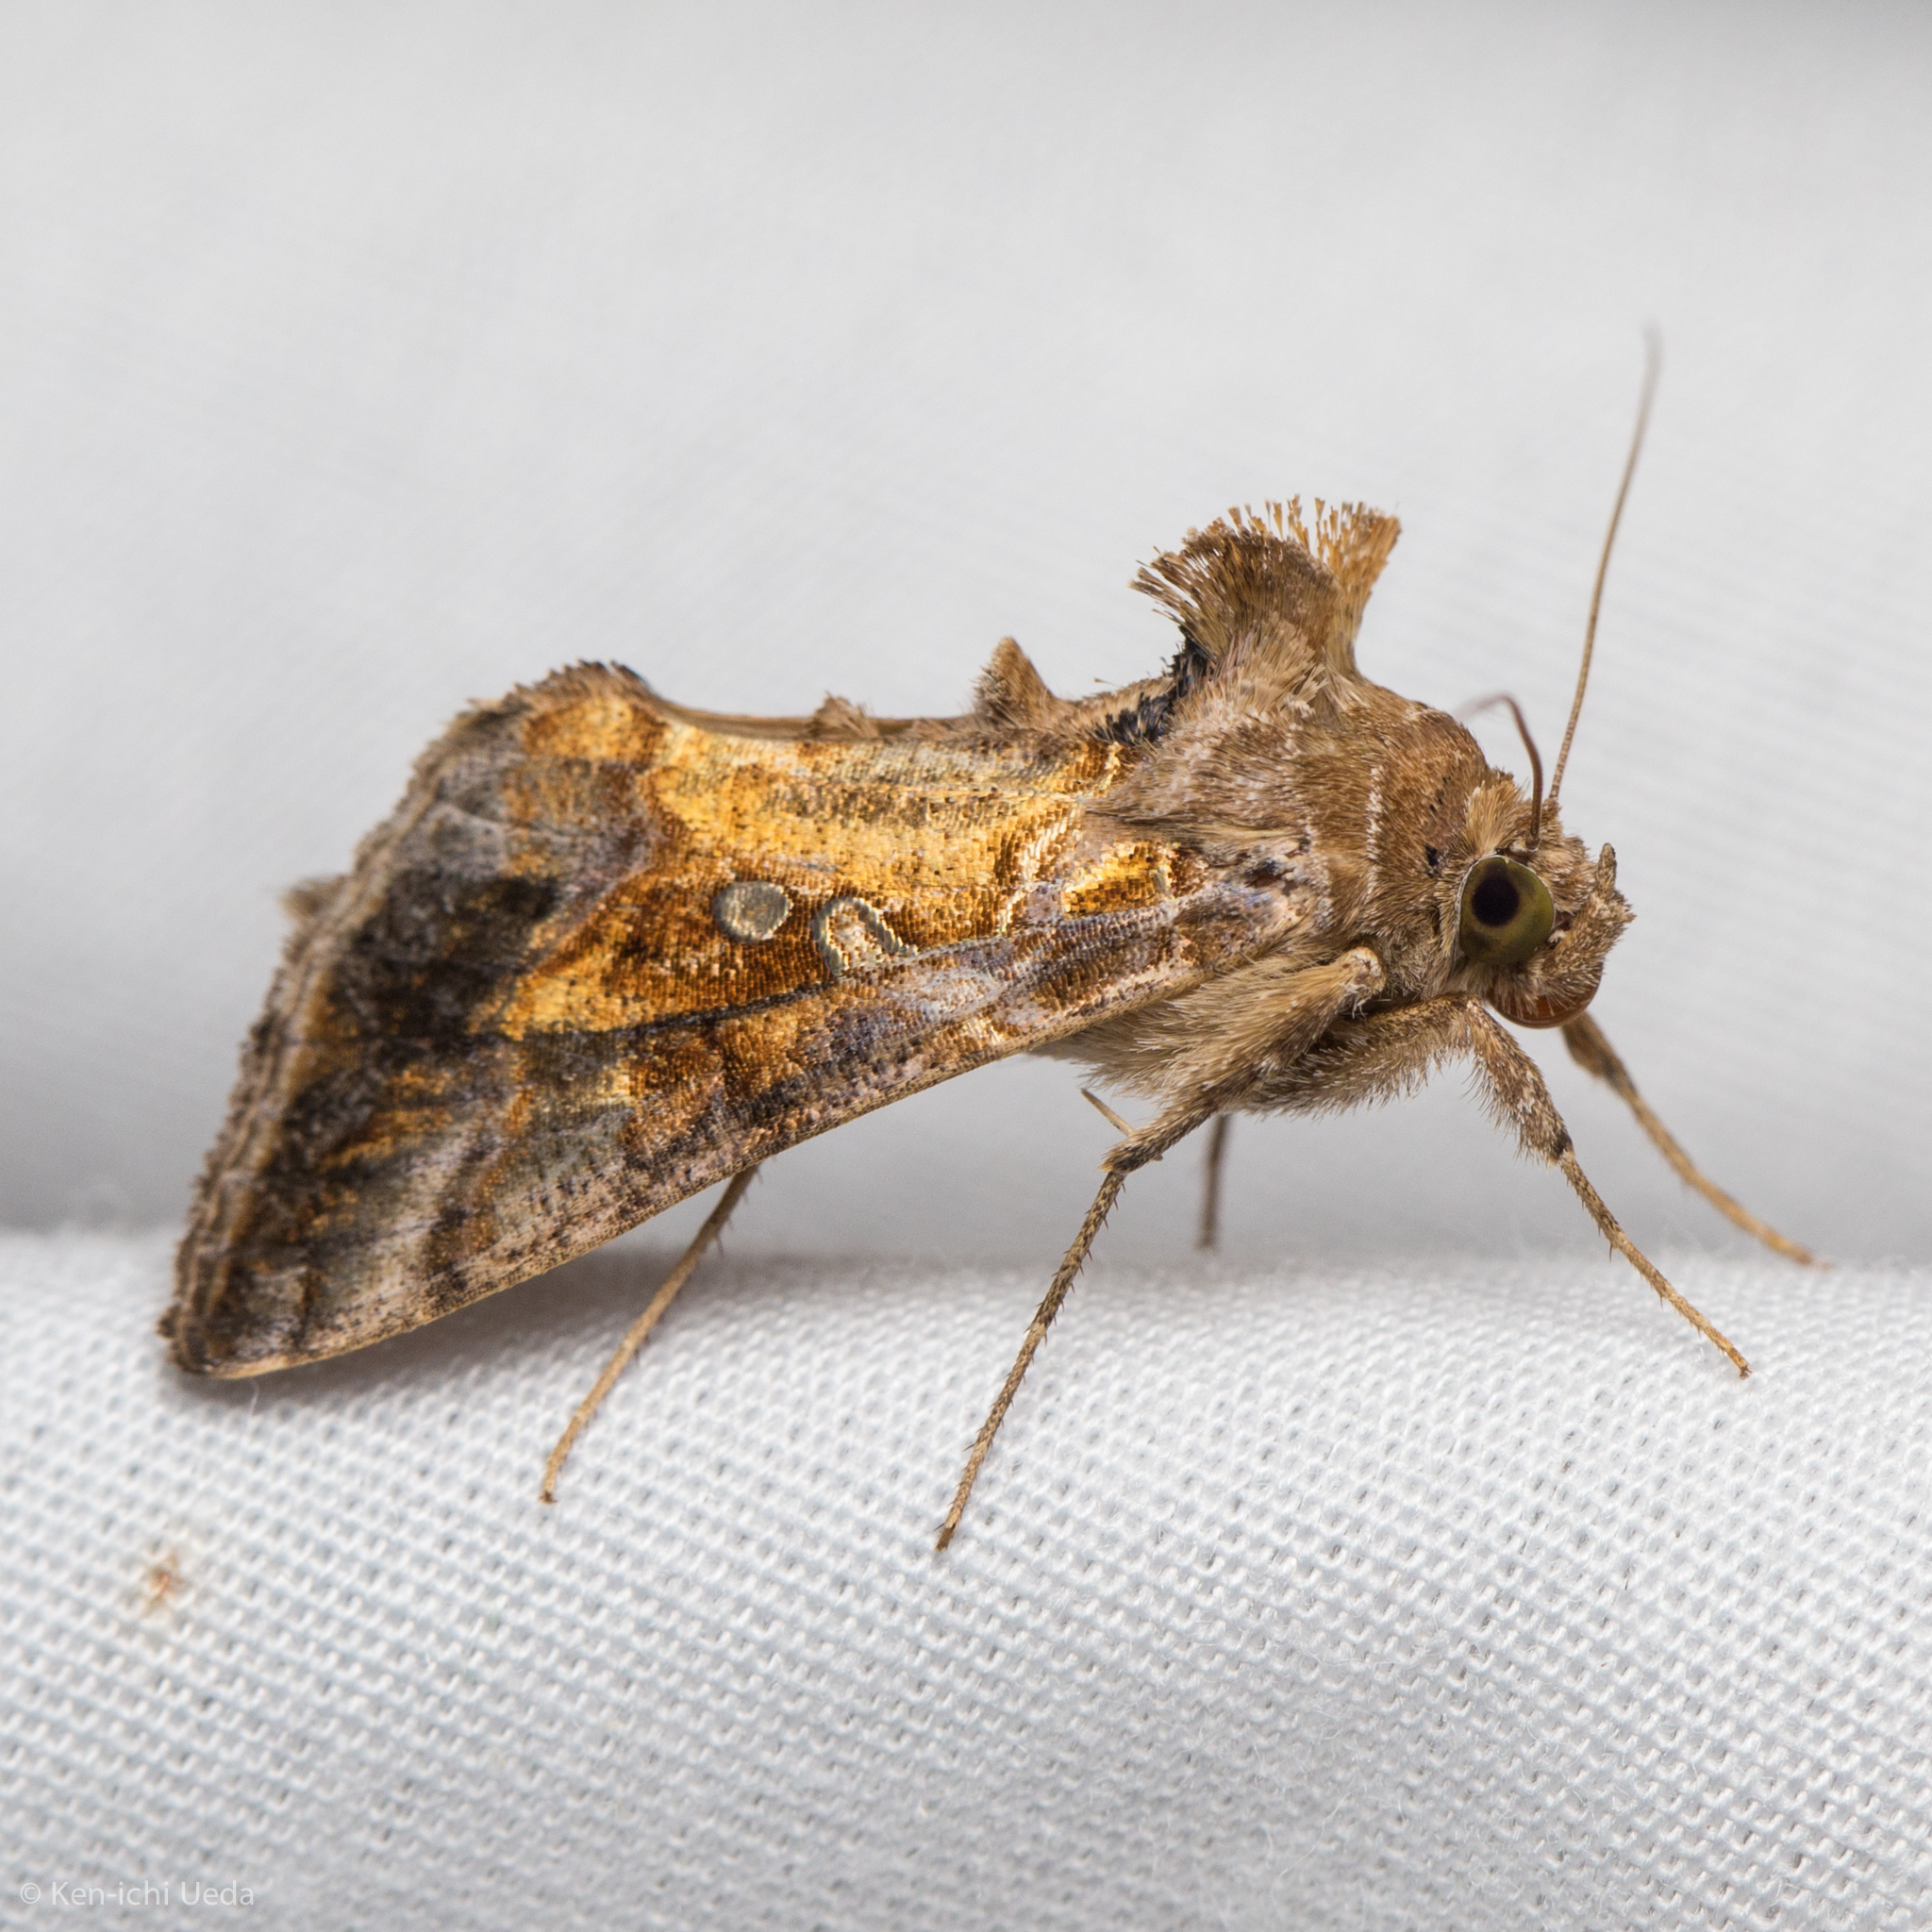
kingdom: Animalia
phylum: Arthropoda
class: Insecta
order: Lepidoptera
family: Noctuidae
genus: Chrysodeixis
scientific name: Chrysodeixis includens
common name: Cutworm moth
